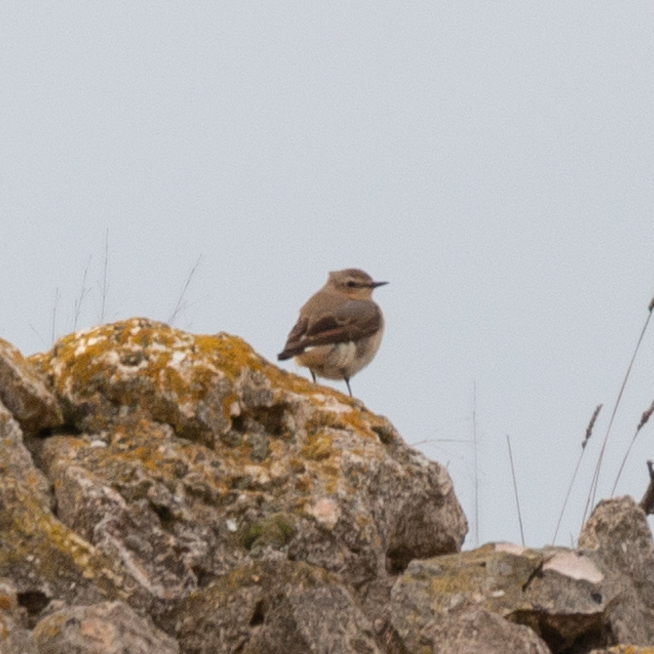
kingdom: Animalia
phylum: Chordata
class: Aves
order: Passeriformes
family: Muscicapidae
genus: Oenanthe
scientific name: Oenanthe oenanthe
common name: Northern wheatear
